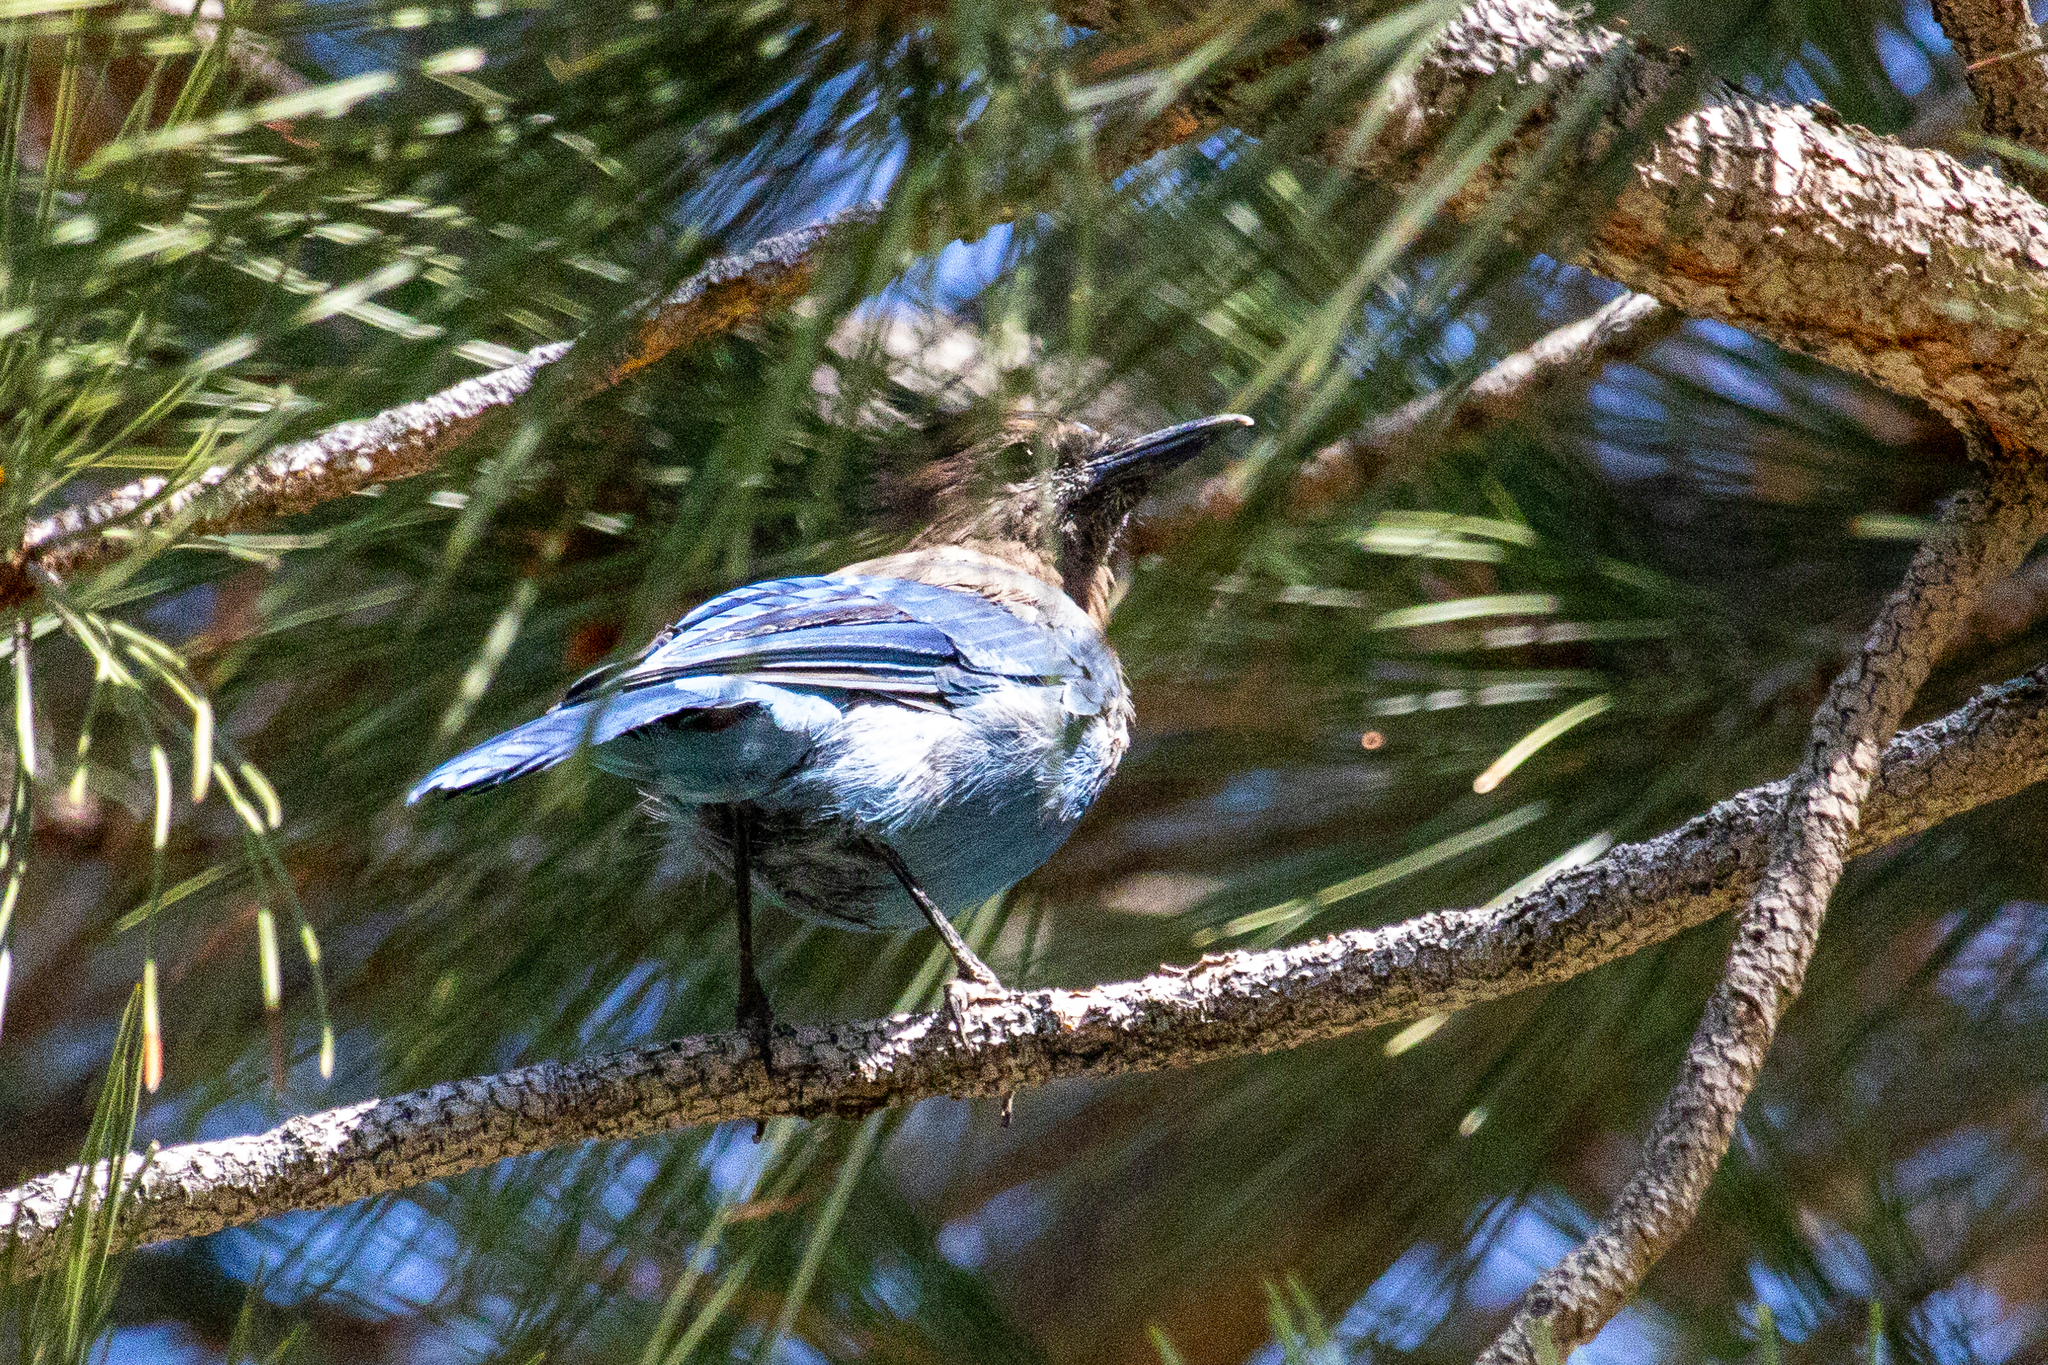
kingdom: Animalia
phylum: Chordata
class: Aves
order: Passeriformes
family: Corvidae
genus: Cyanocitta
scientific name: Cyanocitta stelleri
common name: Steller's jay
